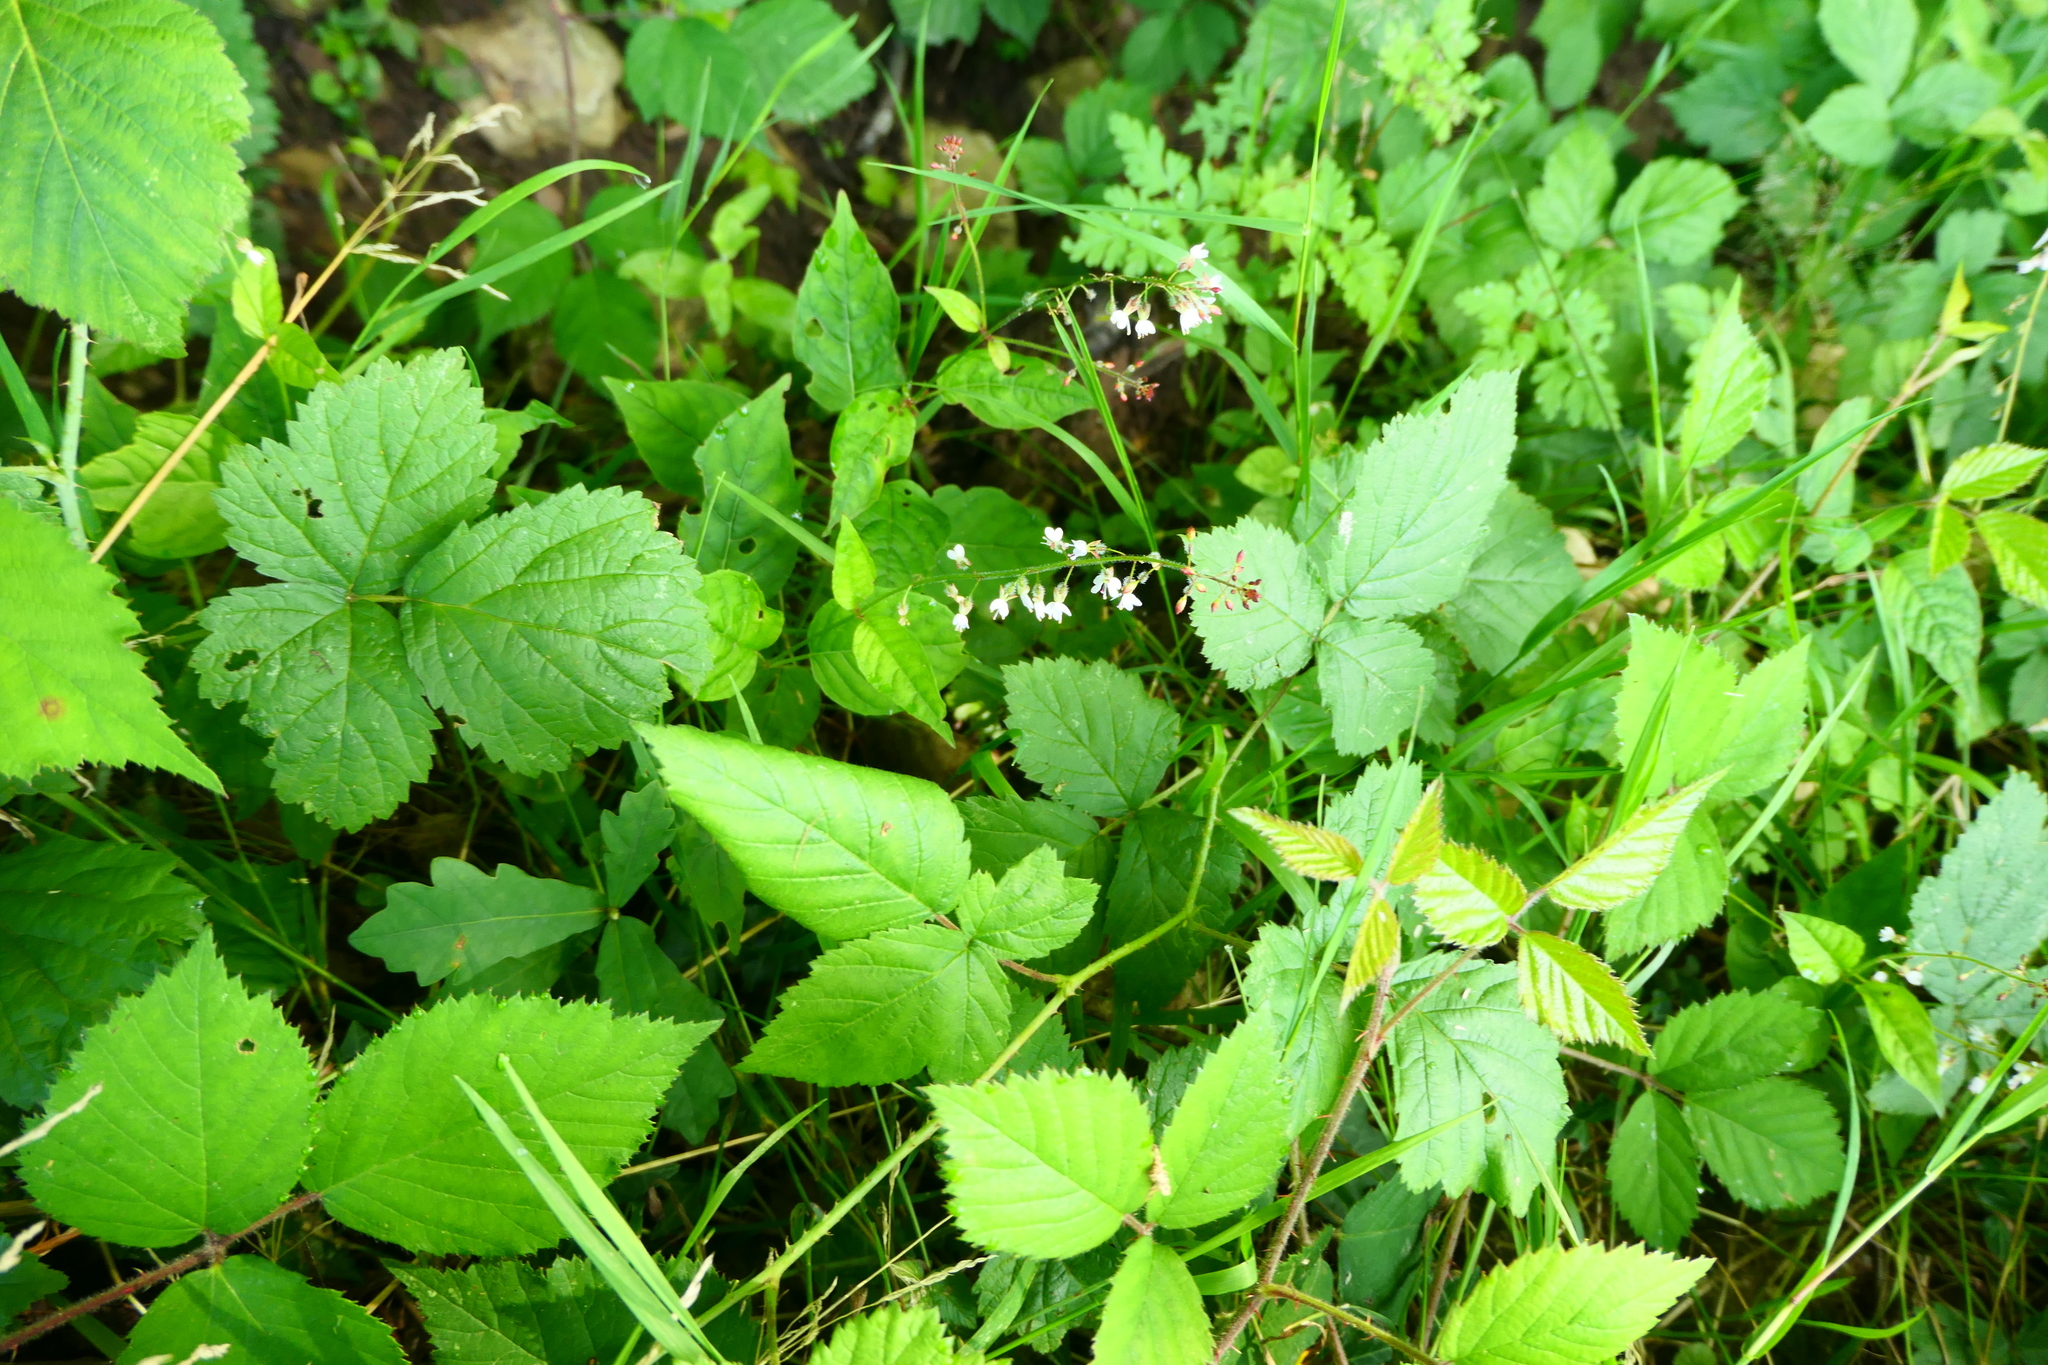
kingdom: Plantae
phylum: Tracheophyta
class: Magnoliopsida
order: Myrtales
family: Onagraceae
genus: Circaea
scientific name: Circaea lutetiana
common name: Enchanter's-nightshade
